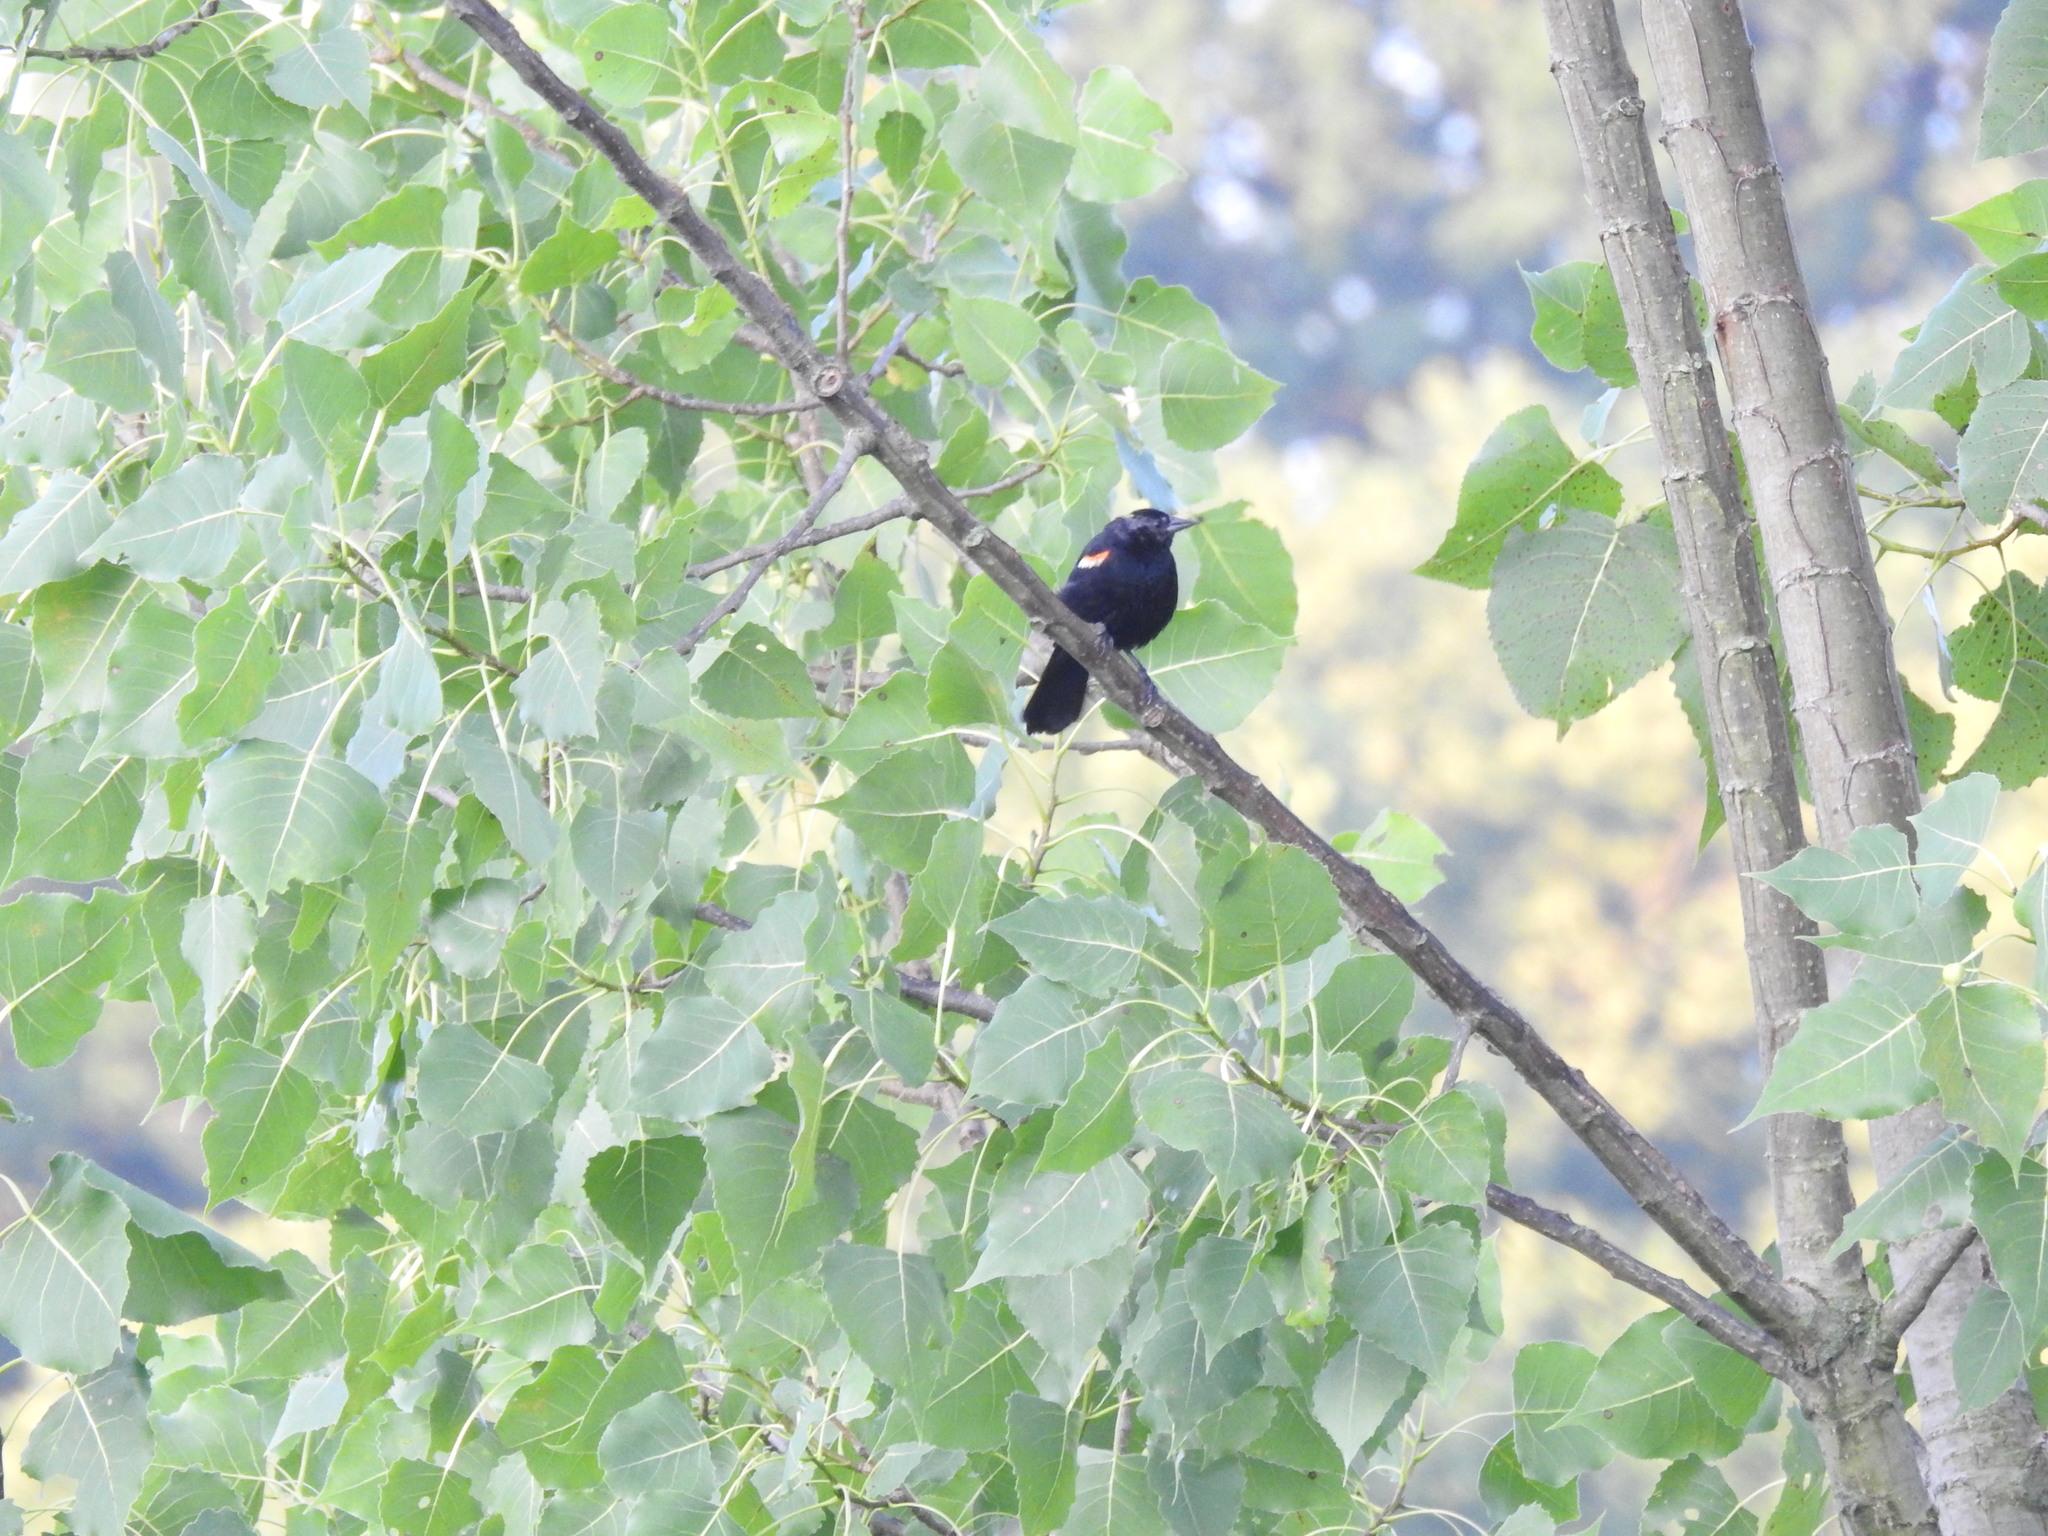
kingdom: Animalia
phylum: Chordata
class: Aves
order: Passeriformes
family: Icteridae
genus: Agelaius
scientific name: Agelaius phoeniceus
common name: Red-winged blackbird
